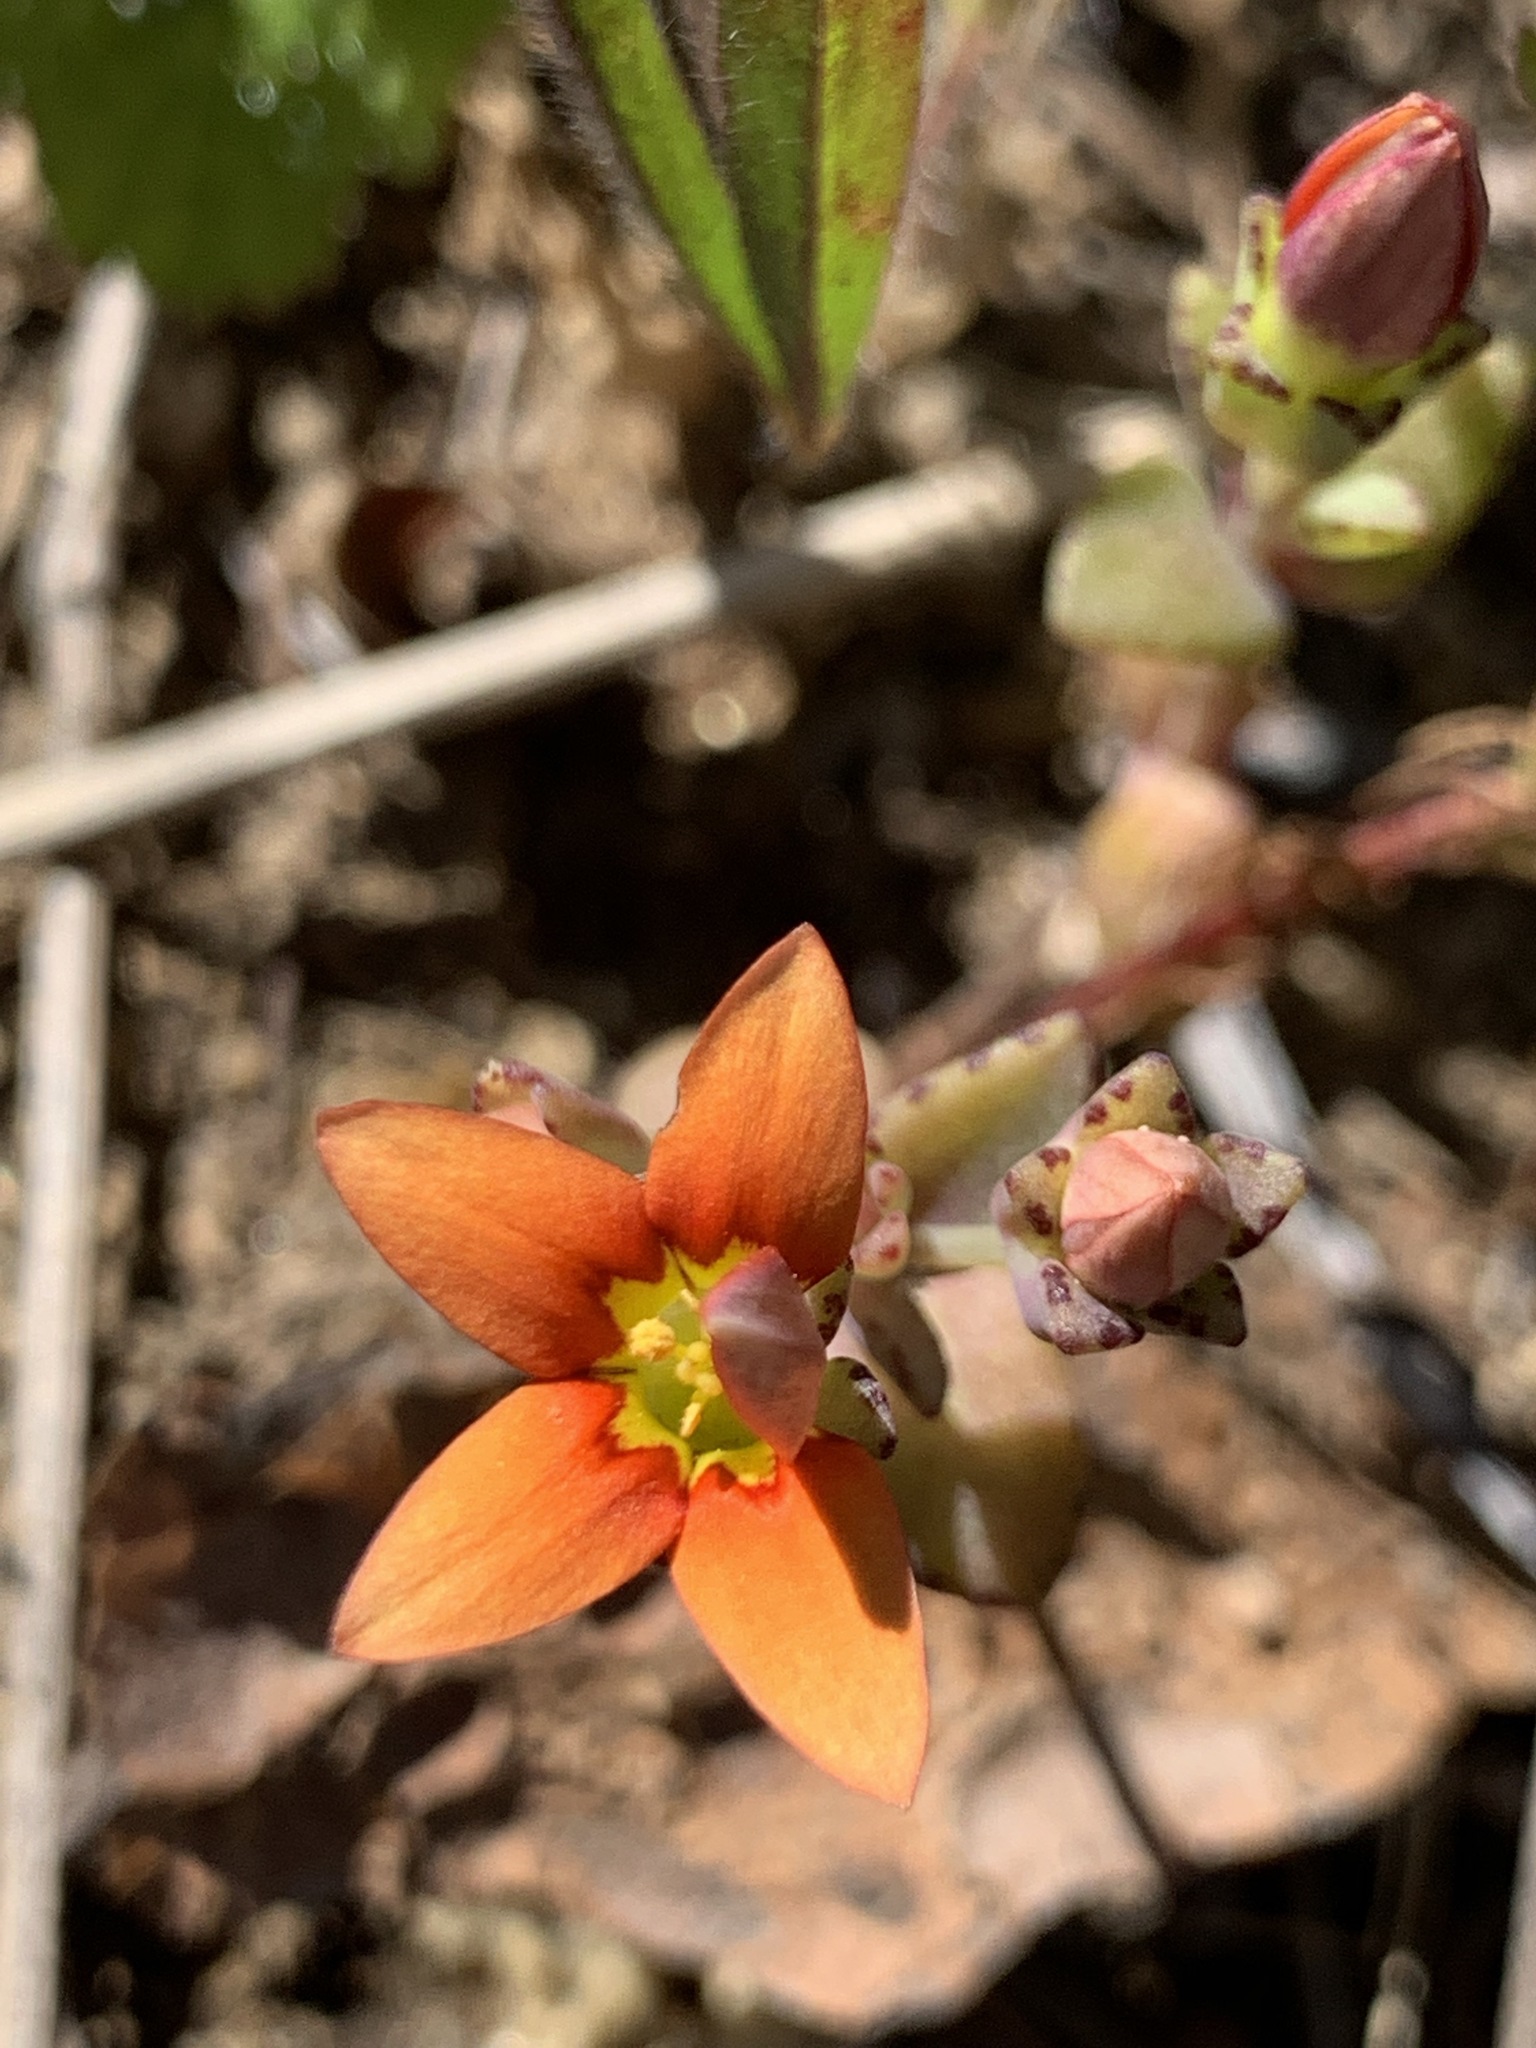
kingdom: Plantae
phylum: Tracheophyta
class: Magnoliopsida
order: Saxifragales
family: Crassulaceae
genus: Crassula
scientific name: Crassula dichotoma
